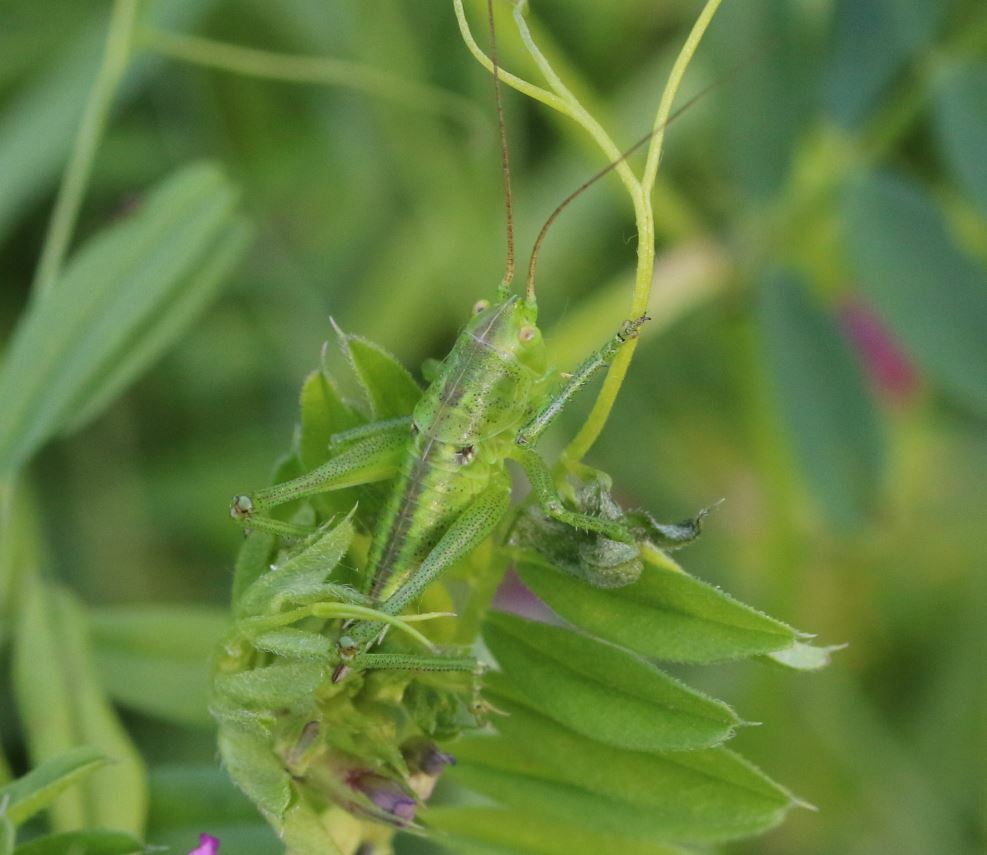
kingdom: Animalia
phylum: Arthropoda
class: Insecta
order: Orthoptera
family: Tettigoniidae
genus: Tettigonia
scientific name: Tettigonia viridissima
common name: Great green bush-cricket
